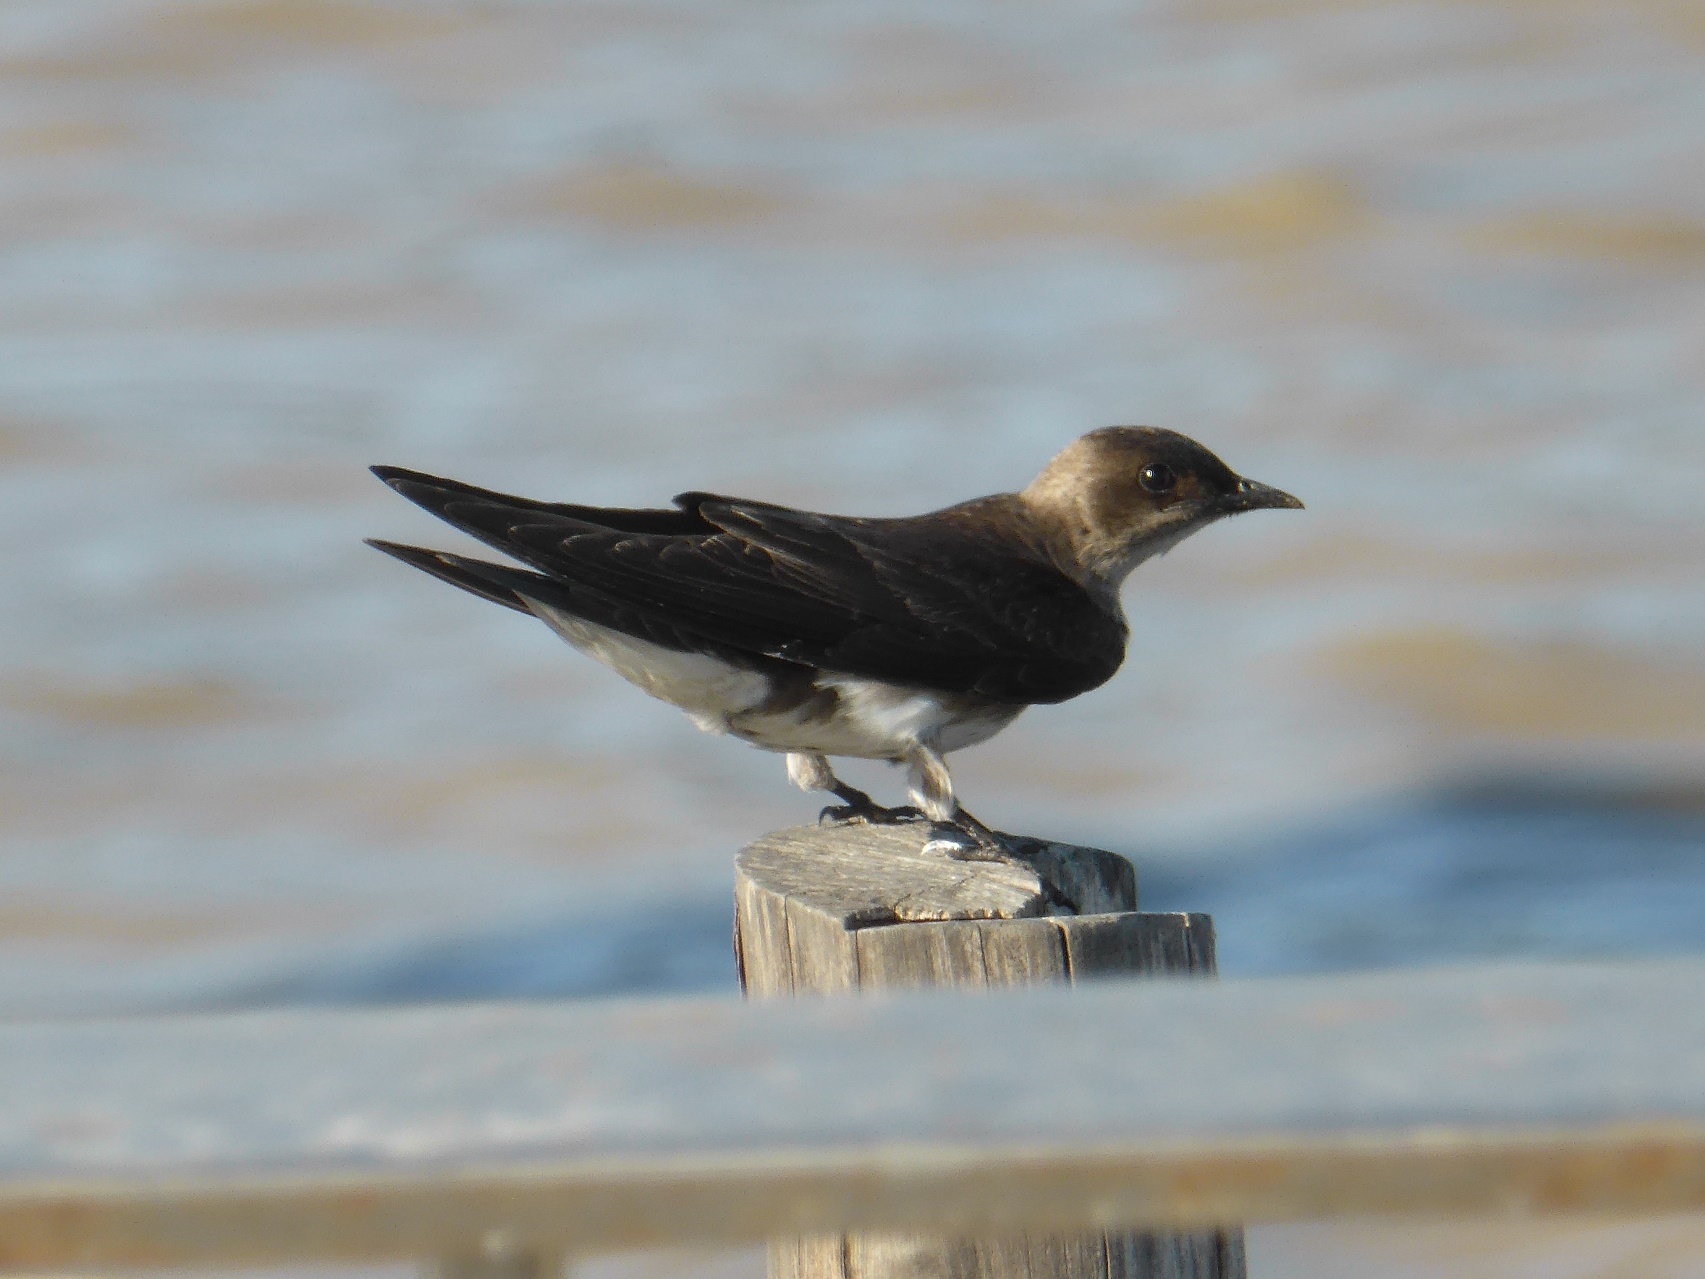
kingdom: Animalia
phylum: Chordata
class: Aves
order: Passeriformes
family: Hirundinidae
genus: Progne
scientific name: Progne tapera
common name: Brown-chested martin
